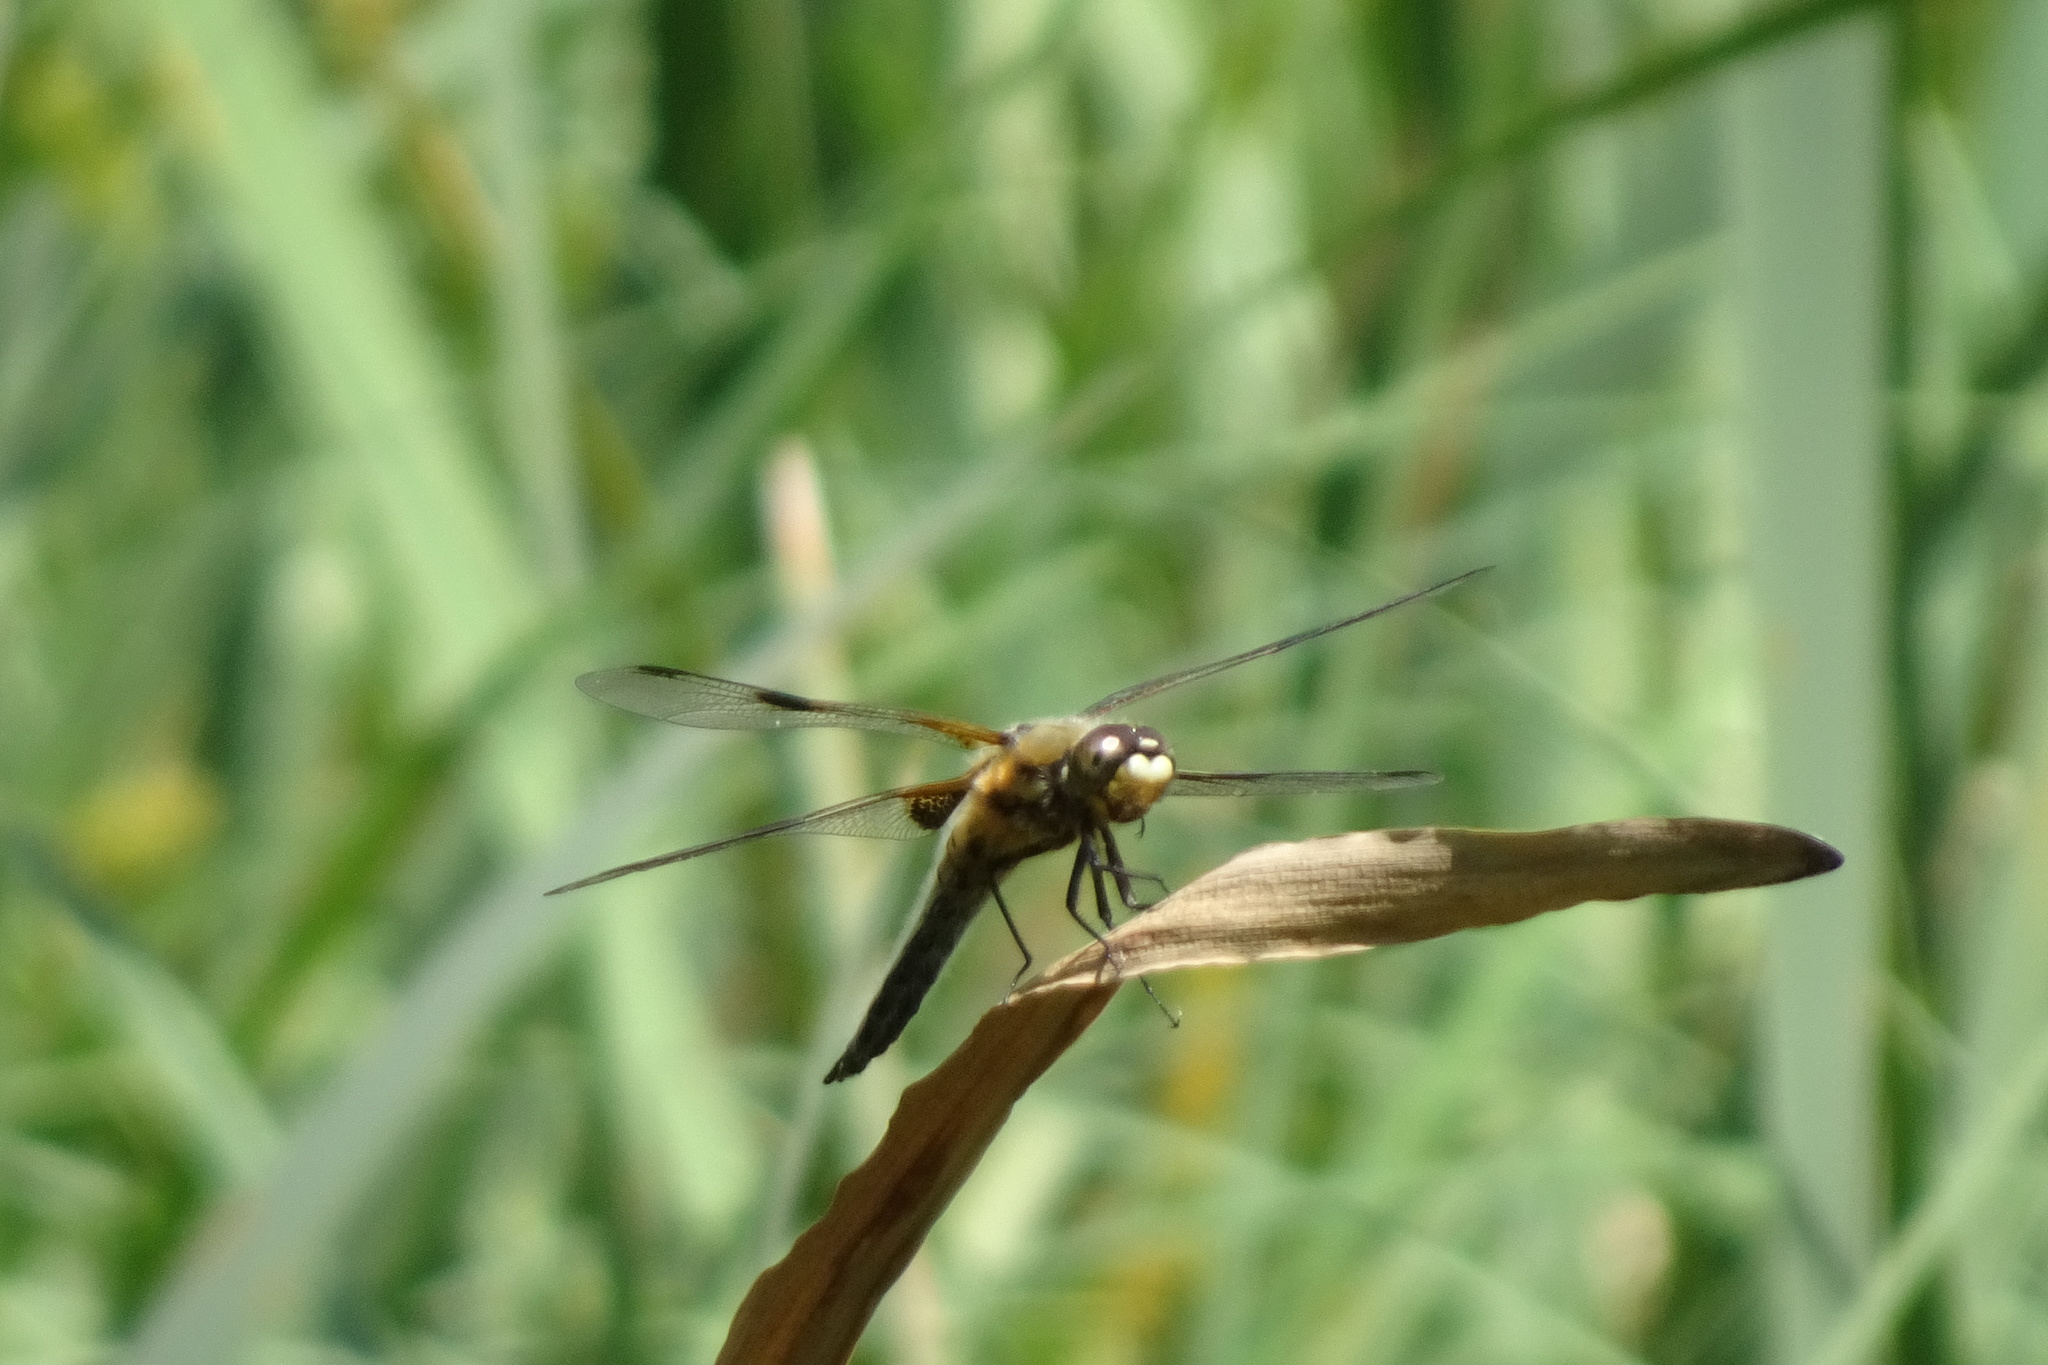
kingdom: Animalia
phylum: Arthropoda
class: Insecta
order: Odonata
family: Libellulidae
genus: Libellula
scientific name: Libellula quadrimaculata
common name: Four-spotted chaser
